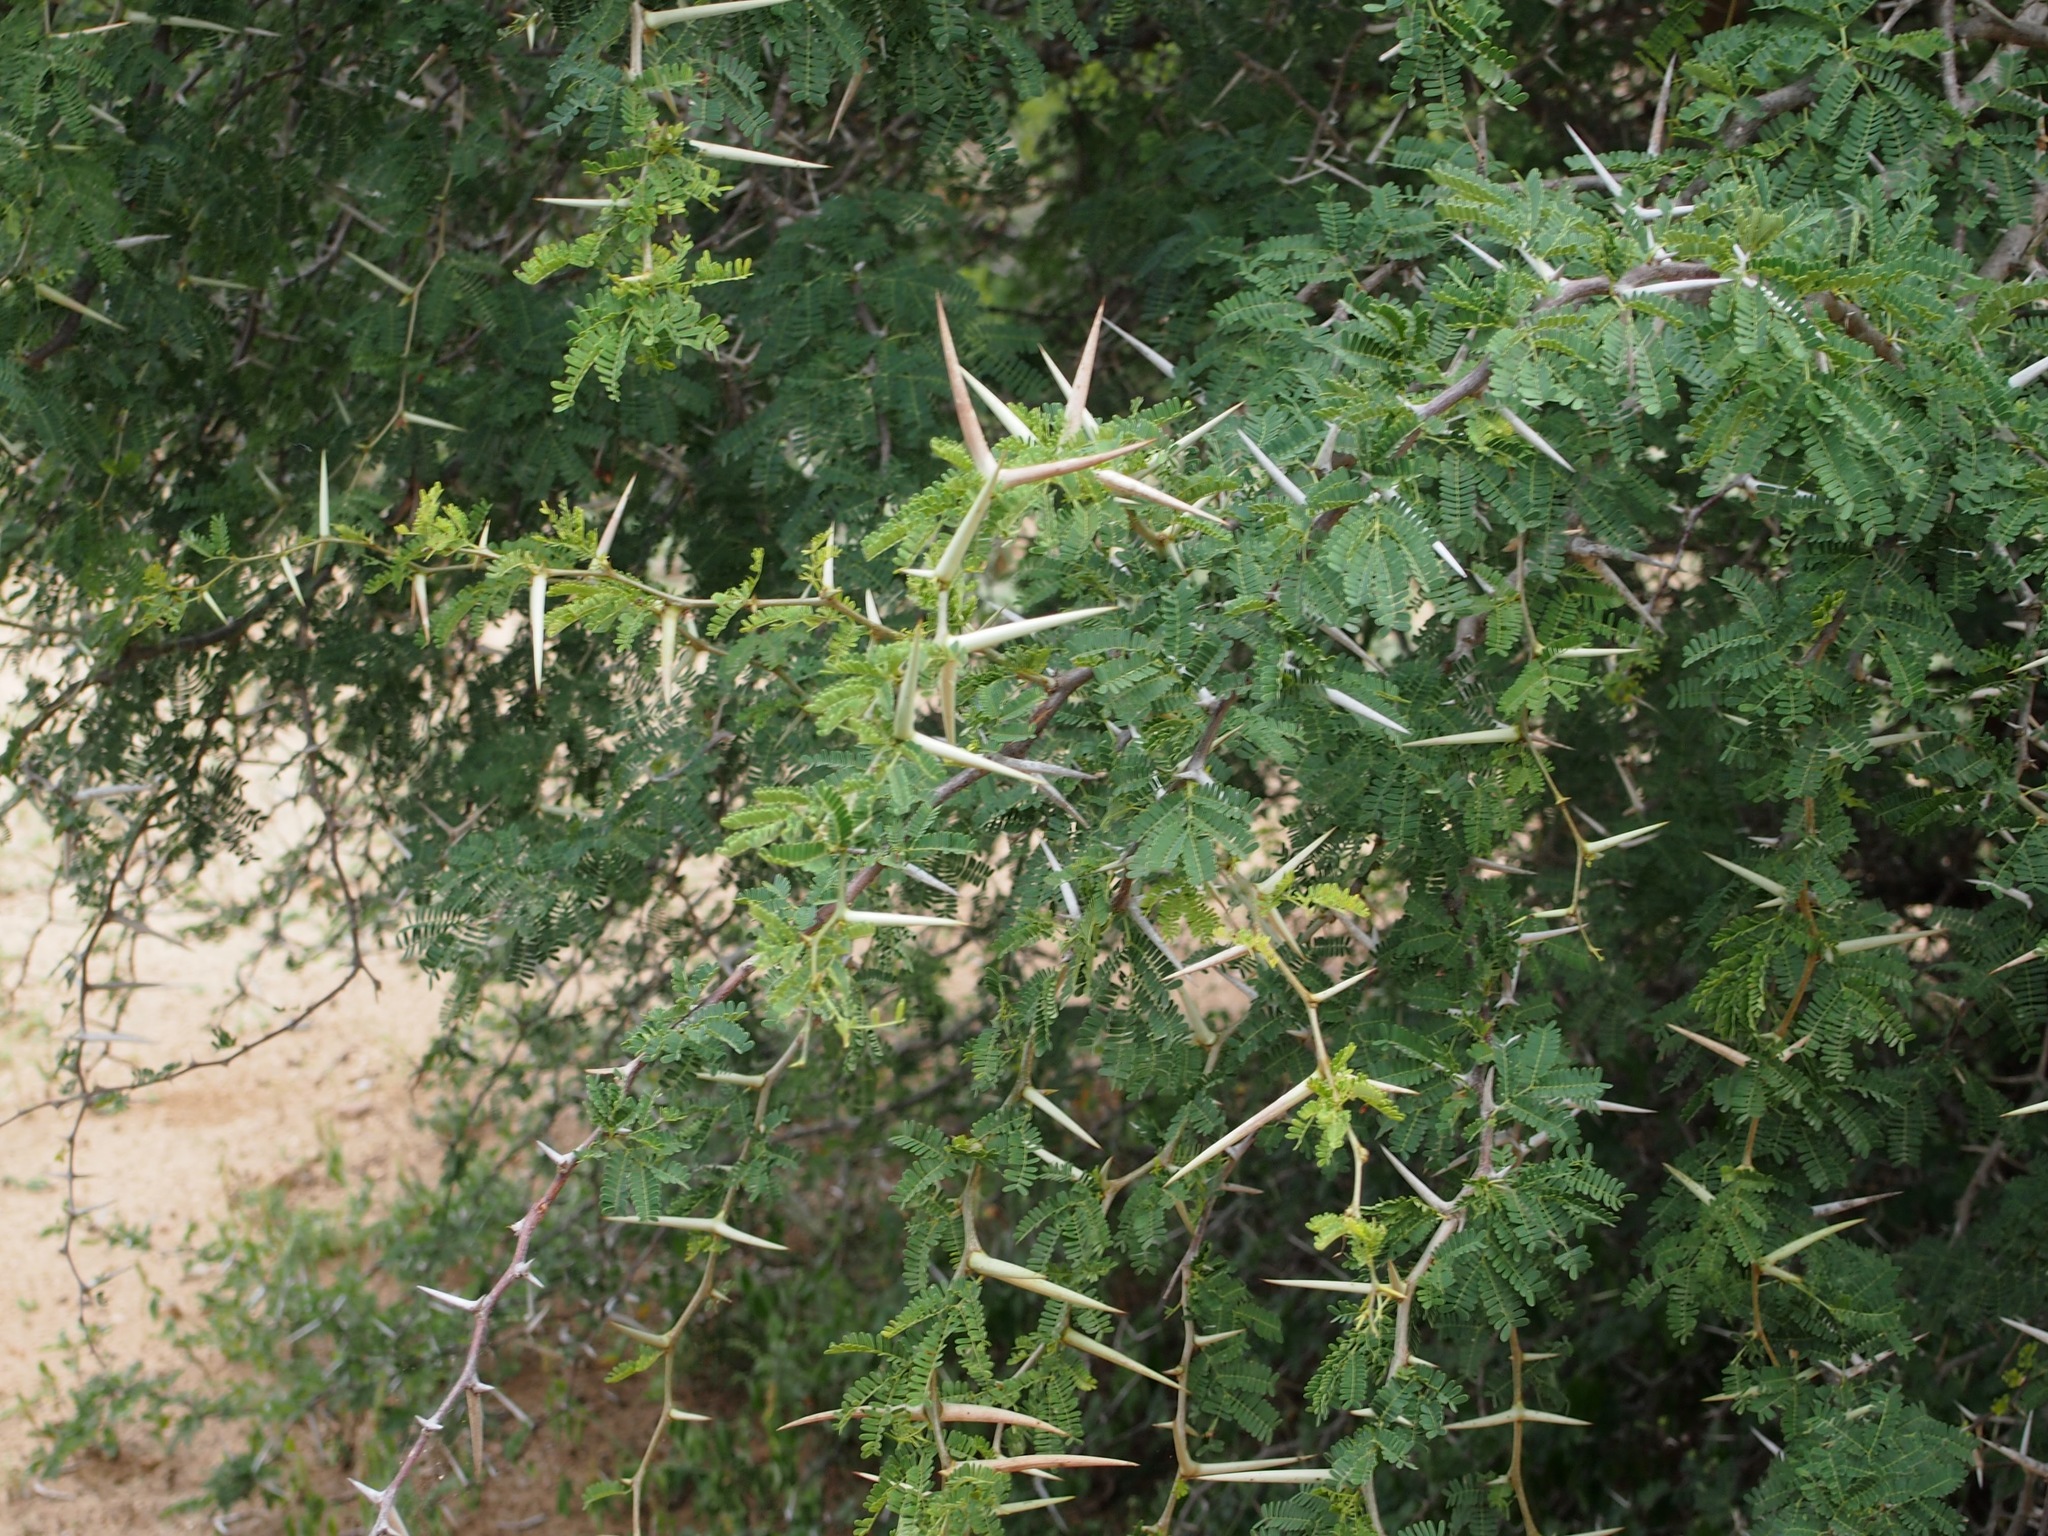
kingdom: Plantae
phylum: Tracheophyta
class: Magnoliopsida
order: Fabales
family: Fabaceae
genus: Vachellia
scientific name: Vachellia grandicornuta
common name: Horned thorn
